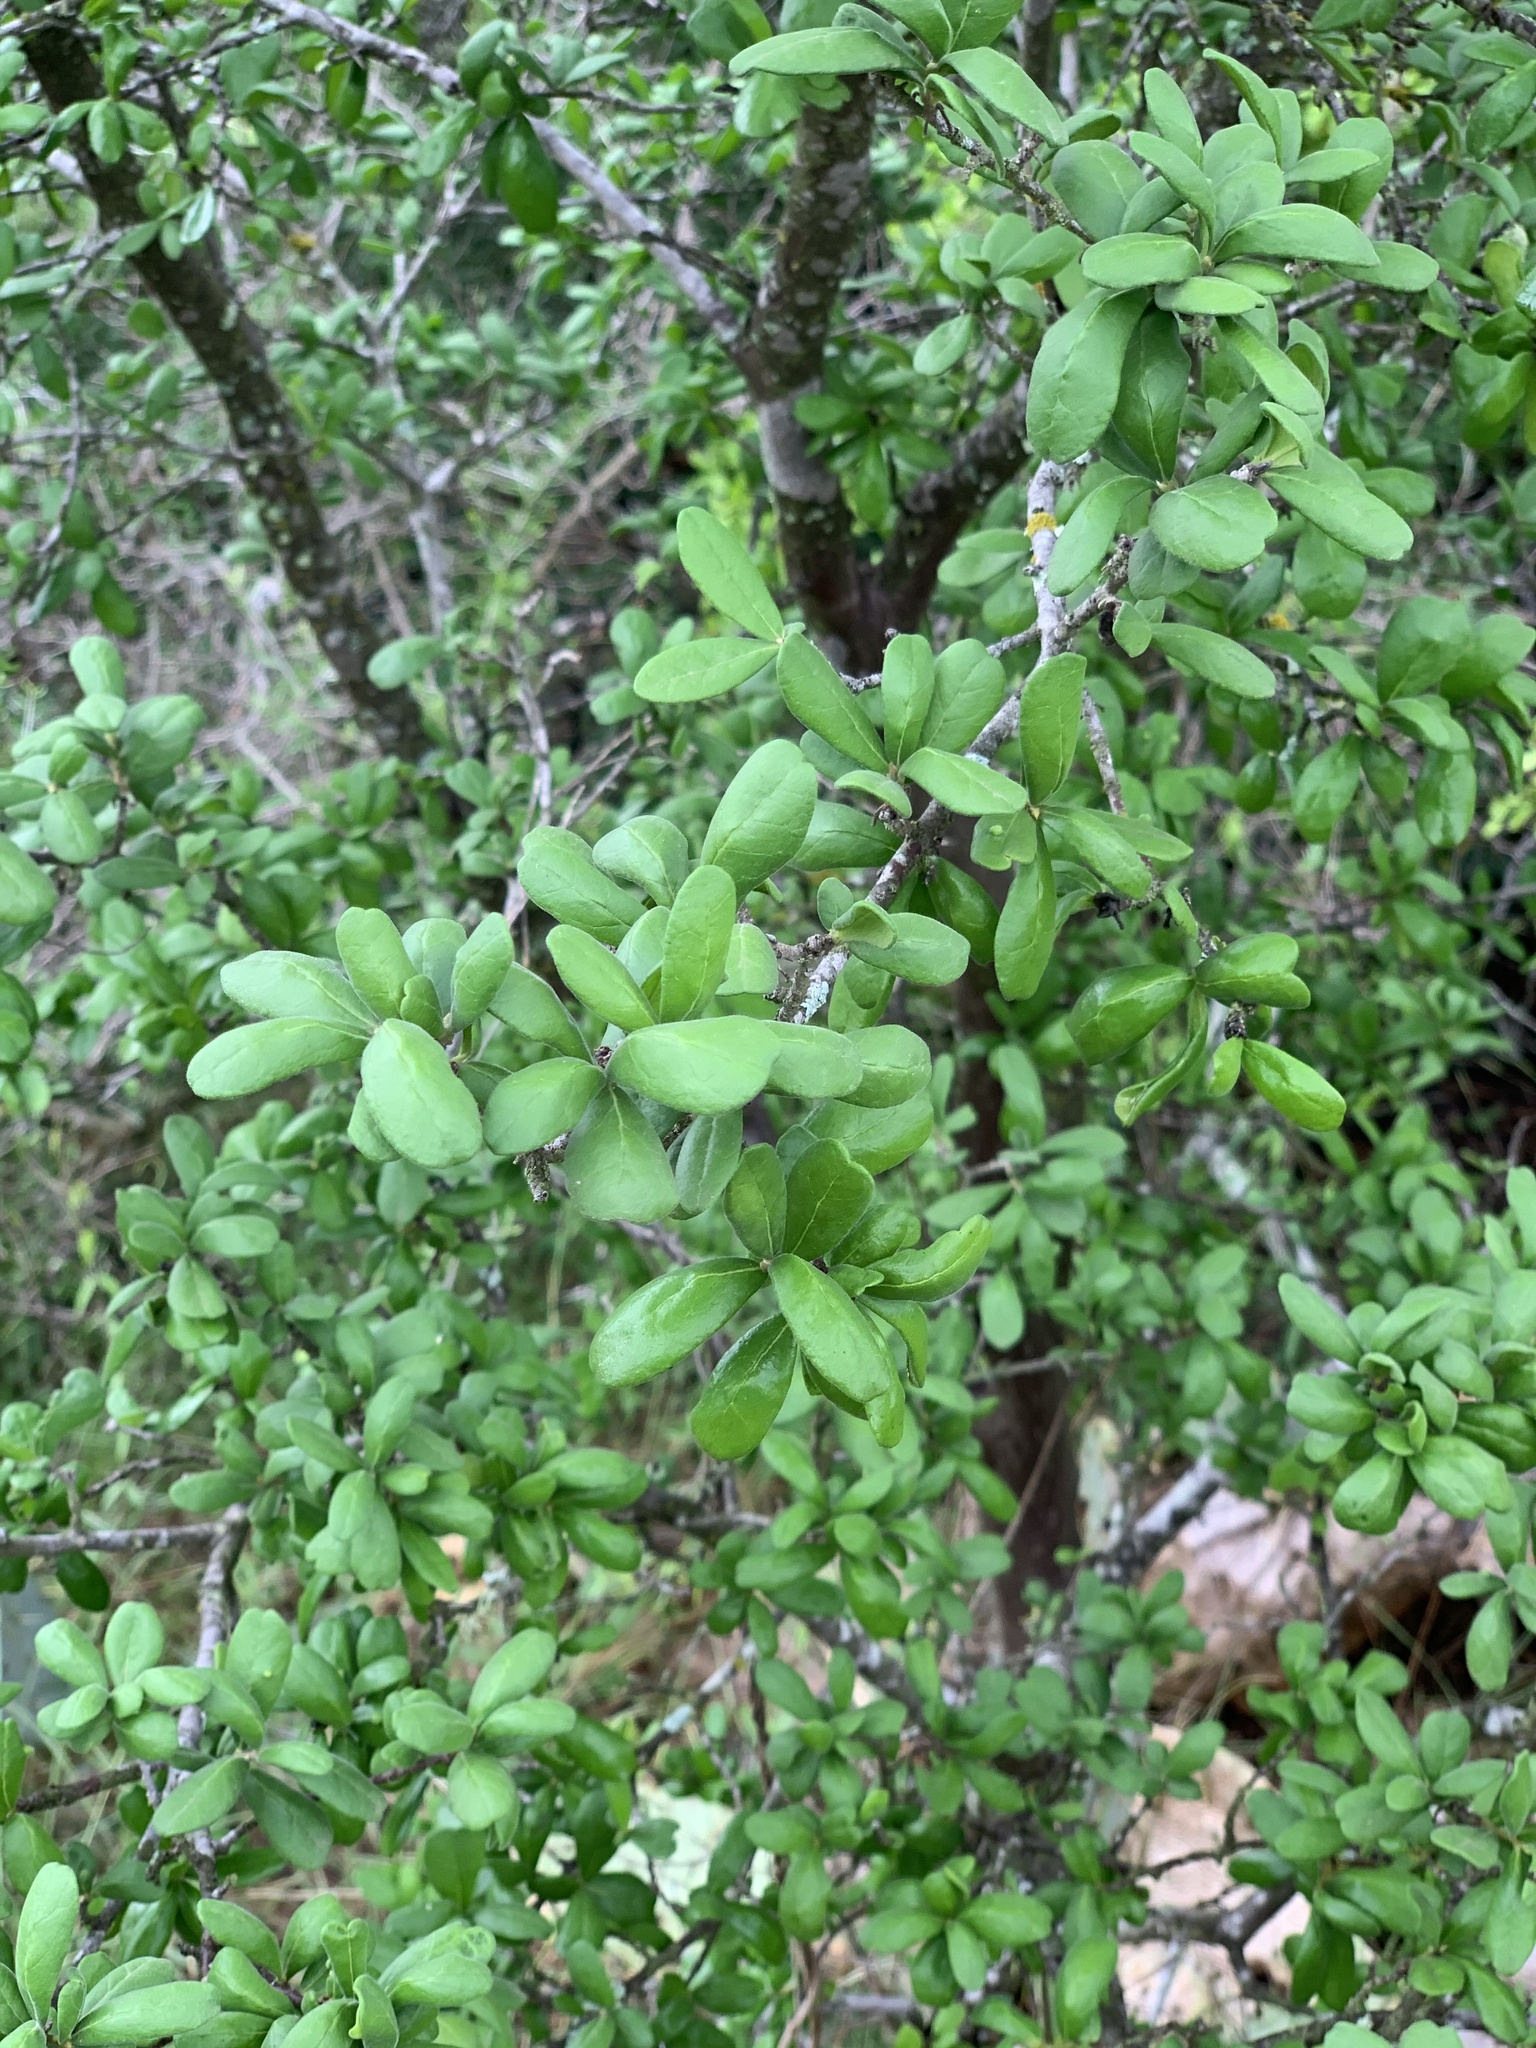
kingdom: Plantae
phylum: Tracheophyta
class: Magnoliopsida
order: Ericales
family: Ebenaceae
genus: Diospyros
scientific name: Diospyros texana
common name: Texas persimmon
